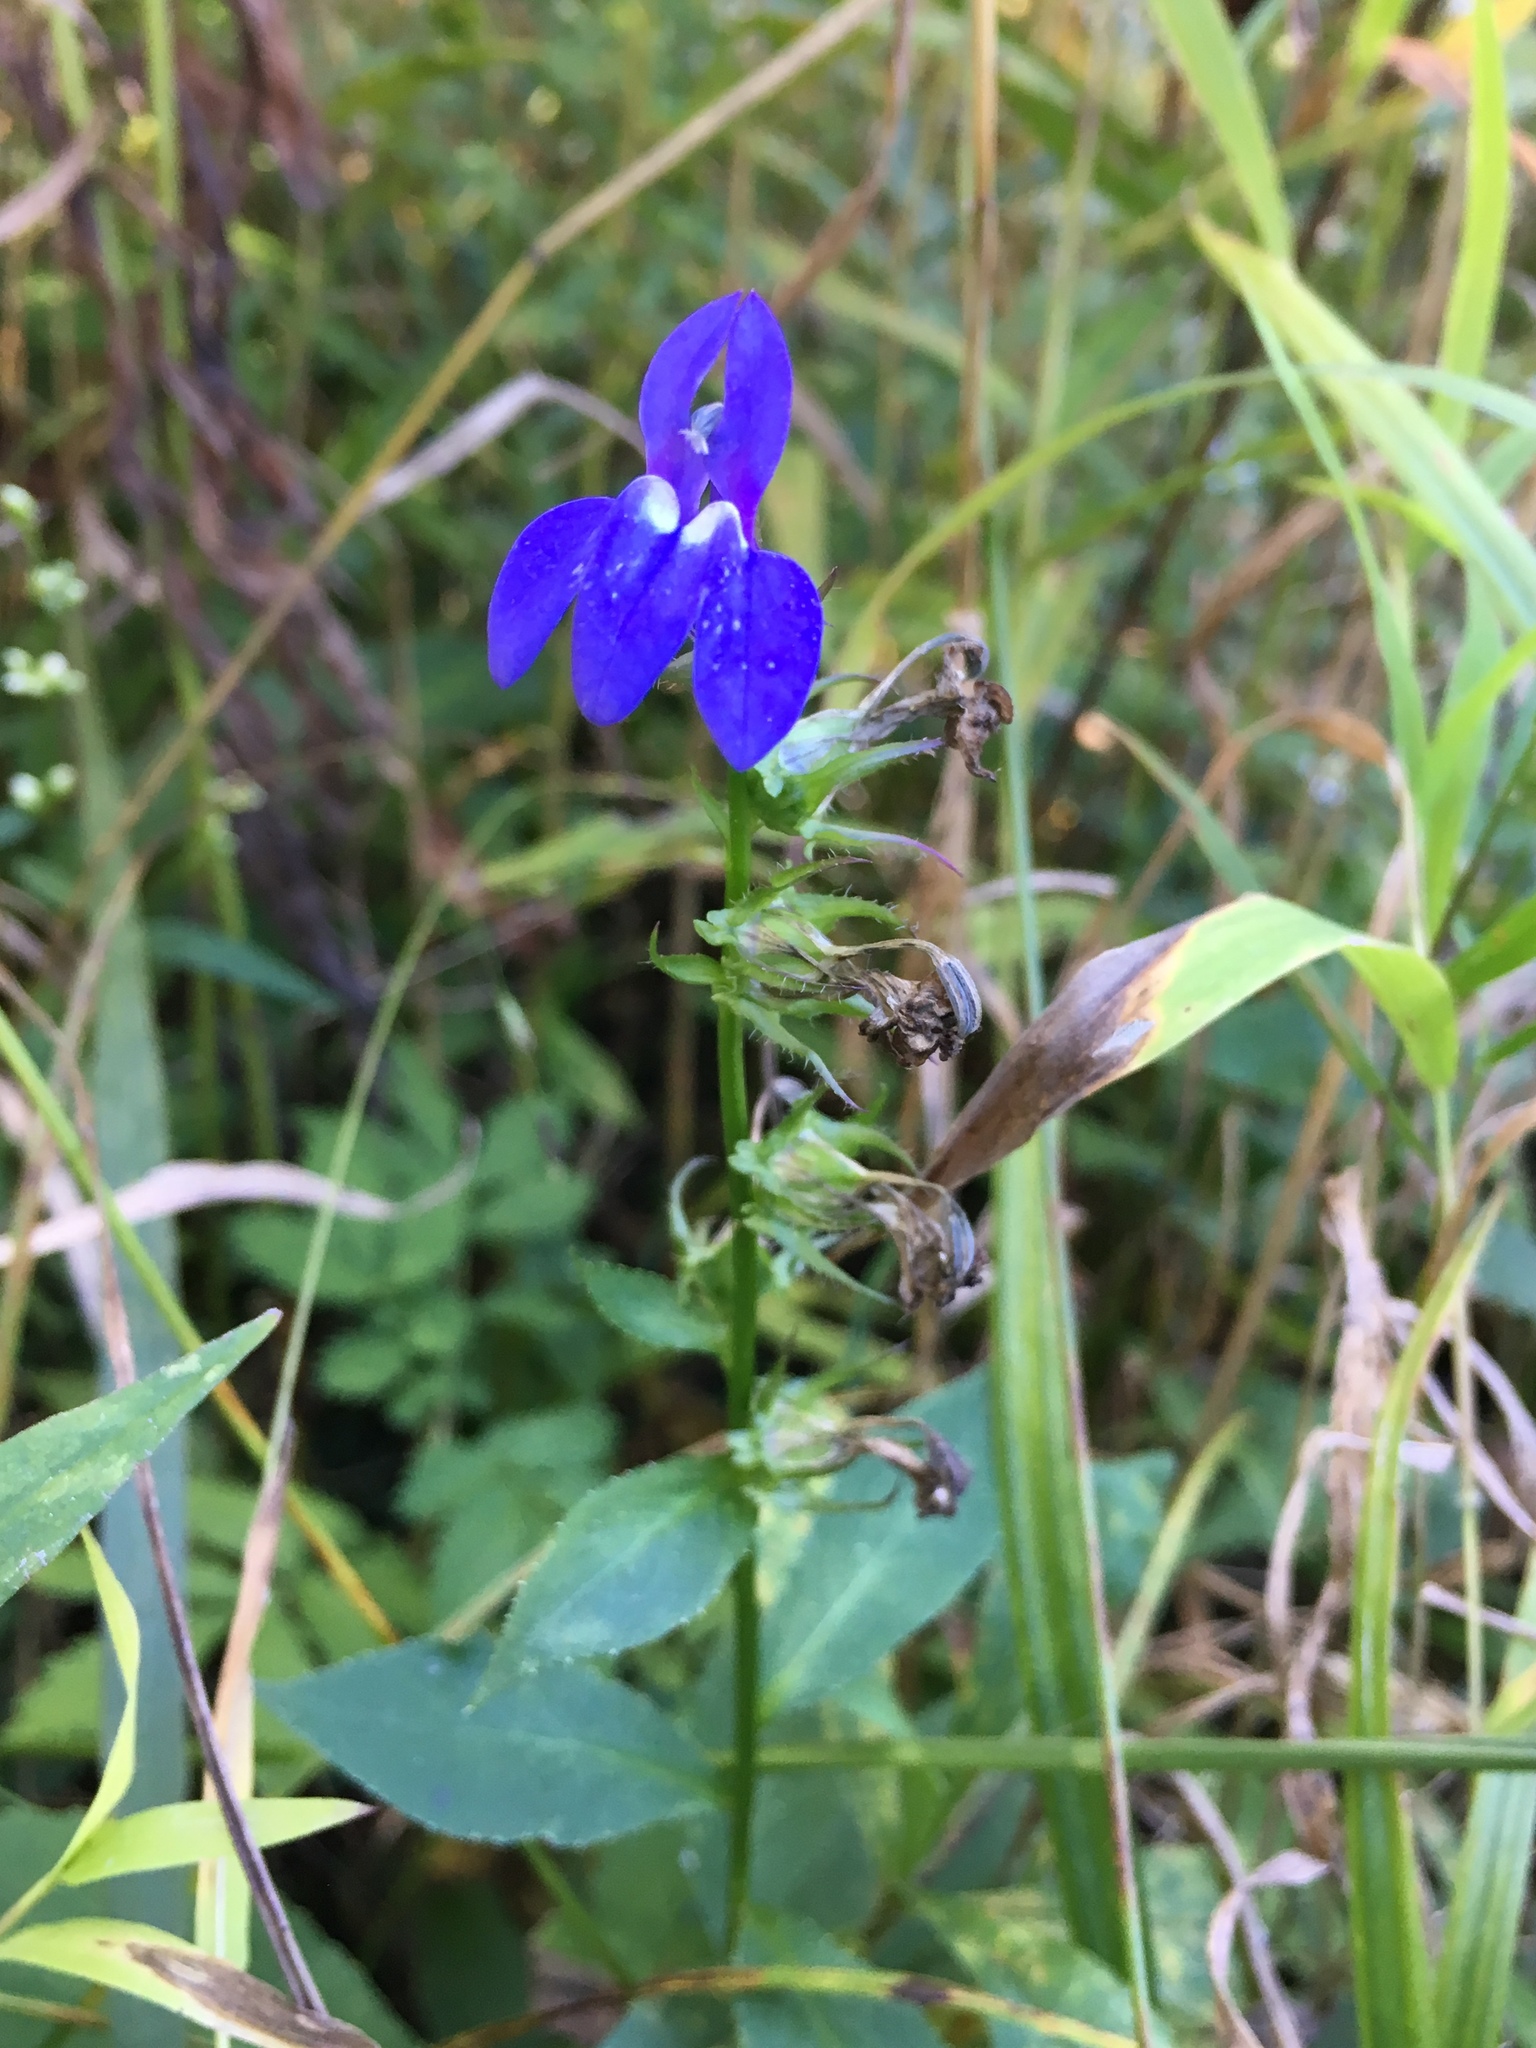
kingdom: Plantae
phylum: Tracheophyta
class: Magnoliopsida
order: Asterales
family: Campanulaceae
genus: Lobelia
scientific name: Lobelia siphilitica
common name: Great lobelia
